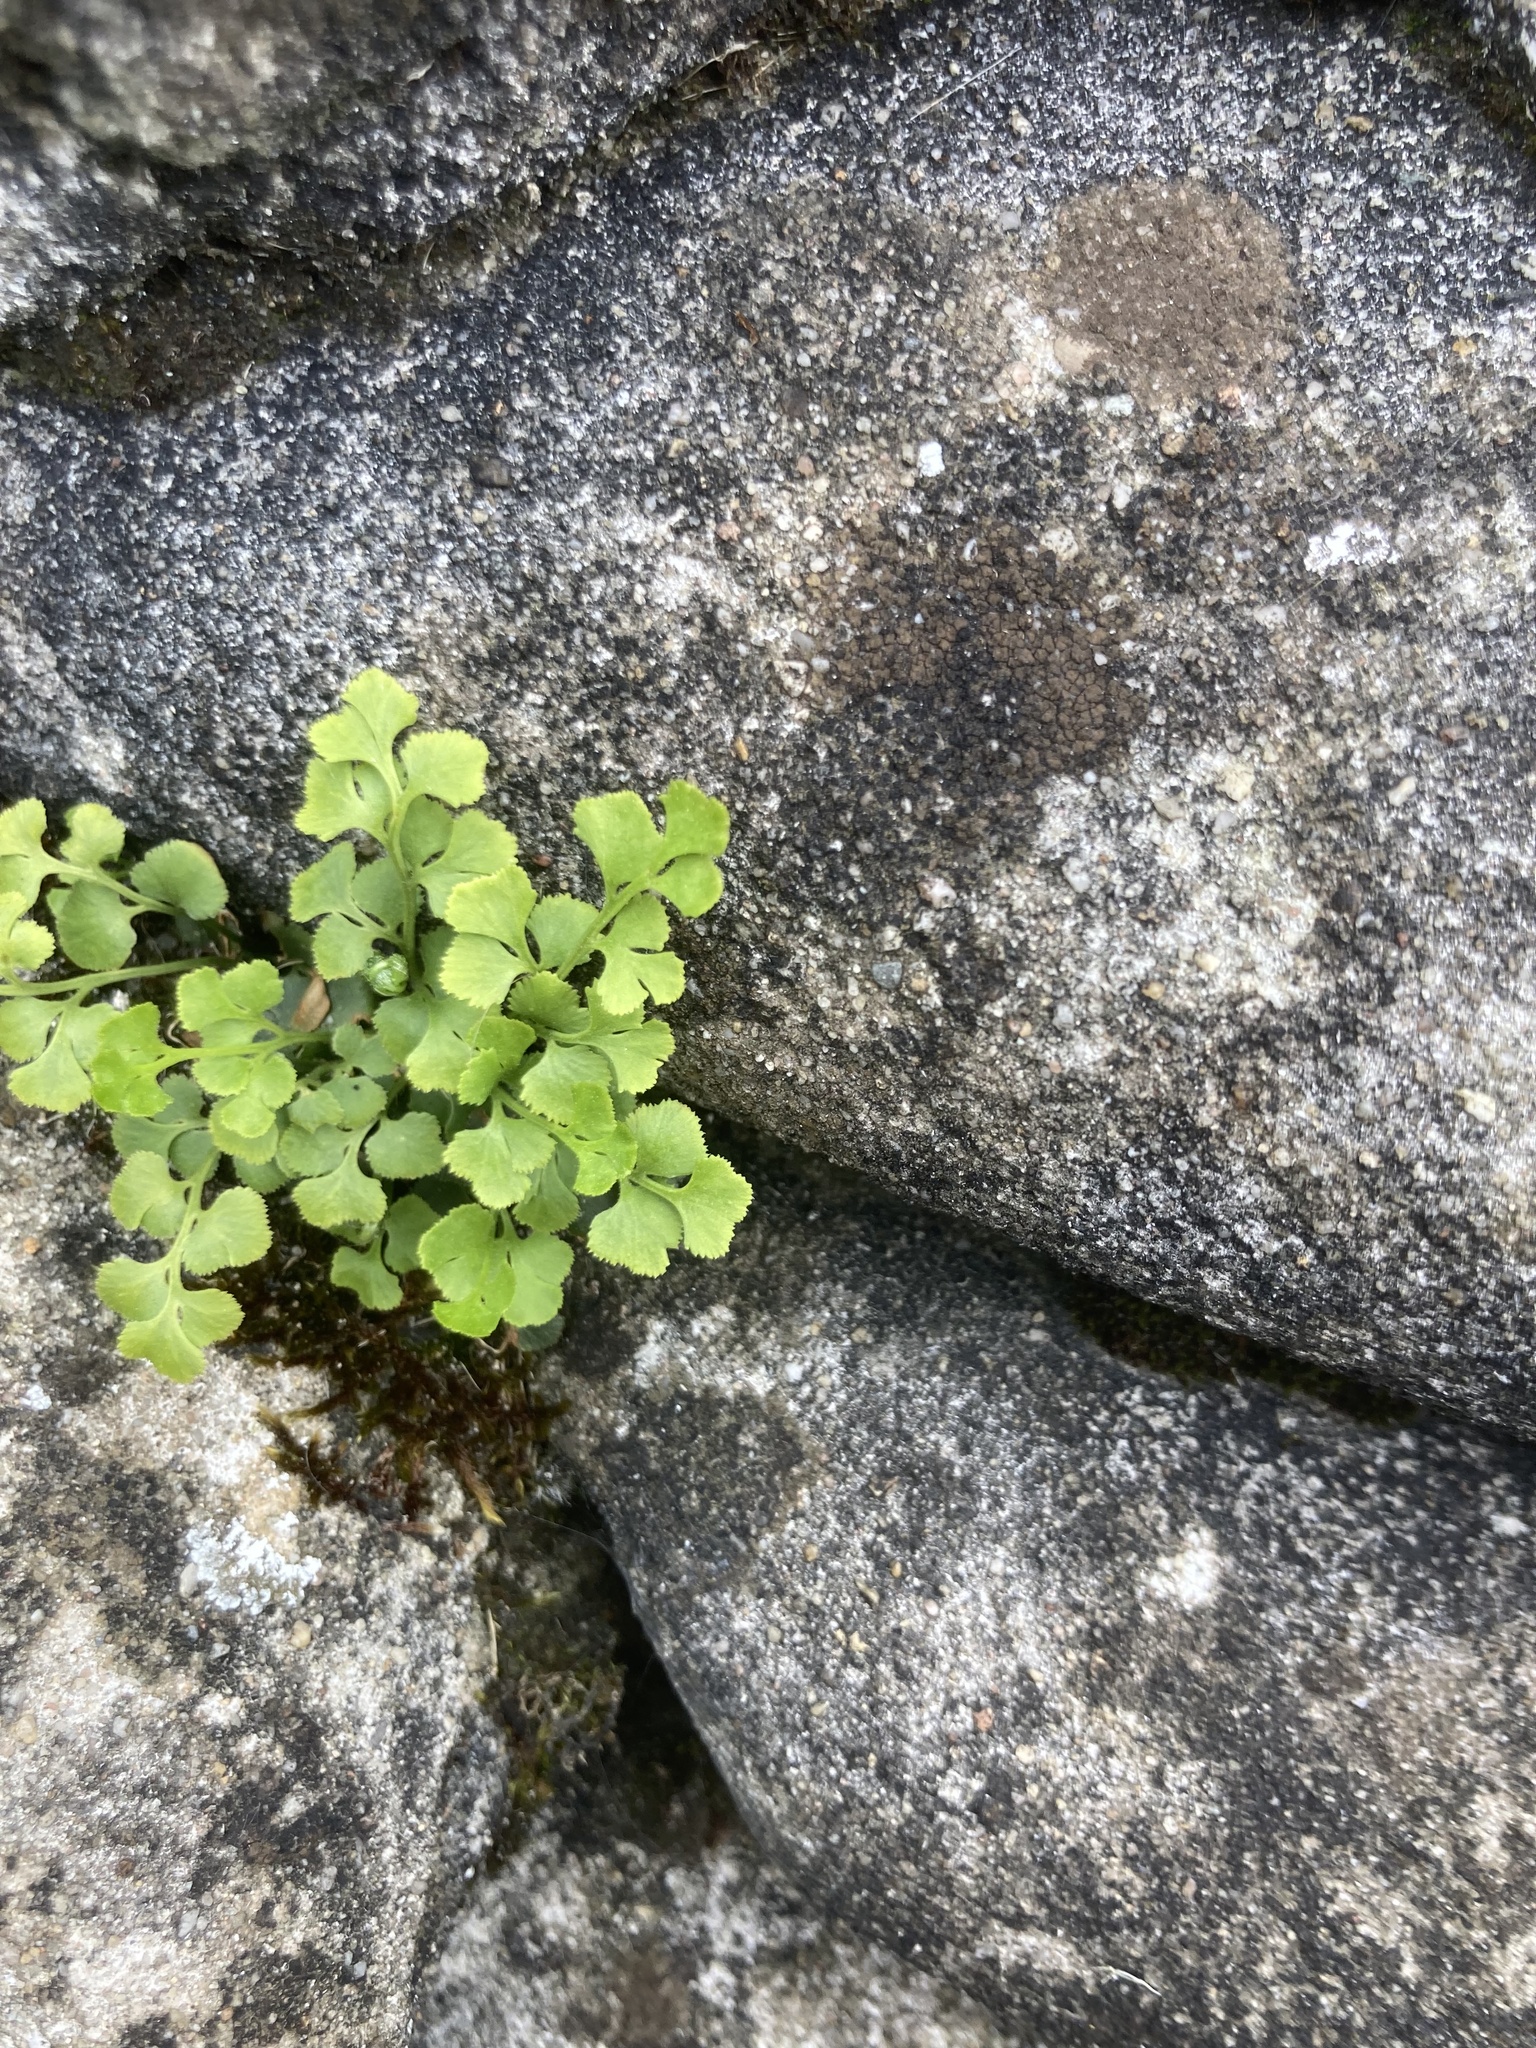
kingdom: Plantae
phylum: Tracheophyta
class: Polypodiopsida
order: Polypodiales
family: Aspleniaceae
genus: Asplenium
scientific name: Asplenium ruta-muraria
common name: Wall-rue
